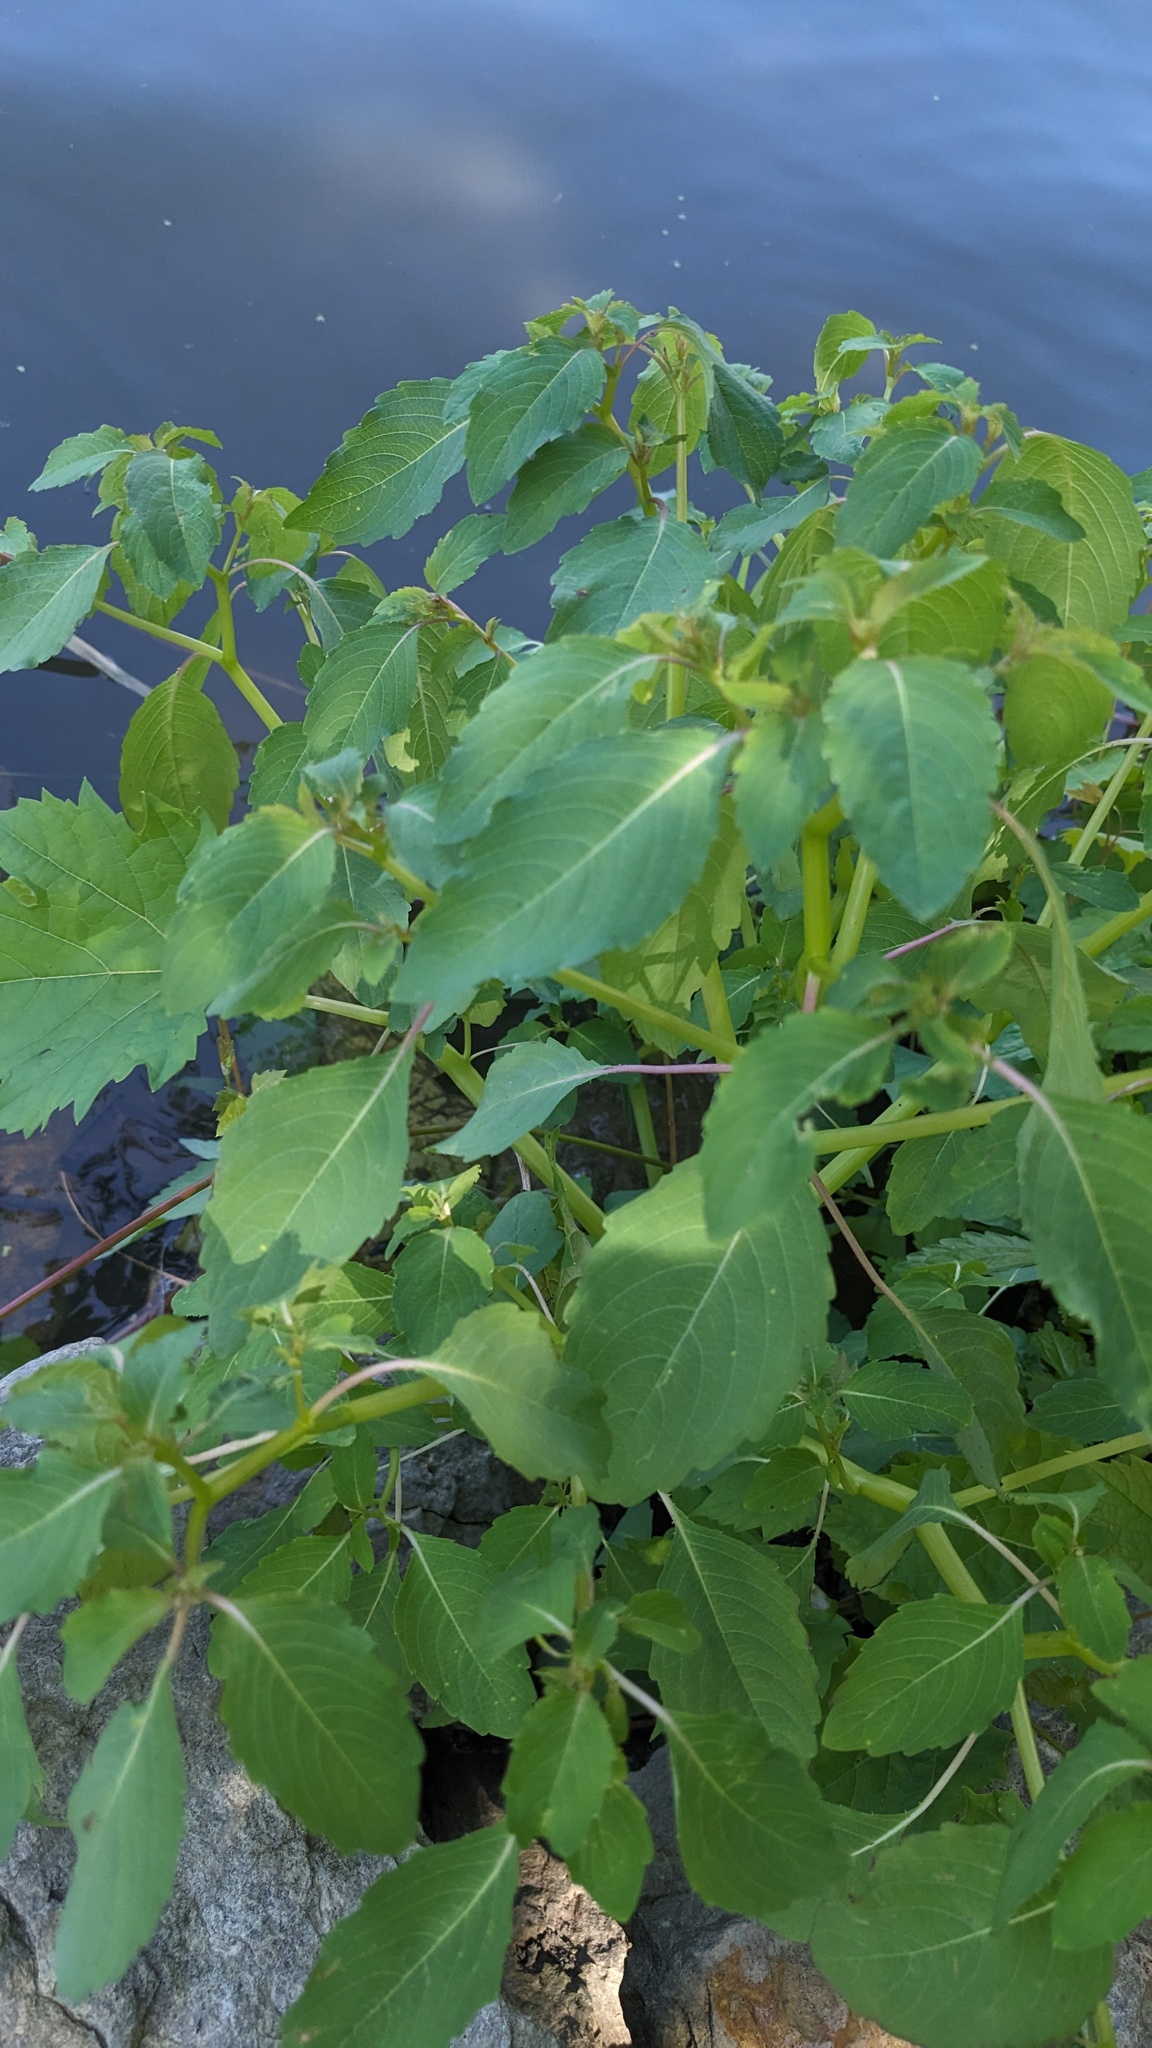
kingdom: Plantae
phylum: Tracheophyta
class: Magnoliopsida
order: Ericales
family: Balsaminaceae
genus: Impatiens
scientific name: Impatiens capensis
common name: Orange balsam
